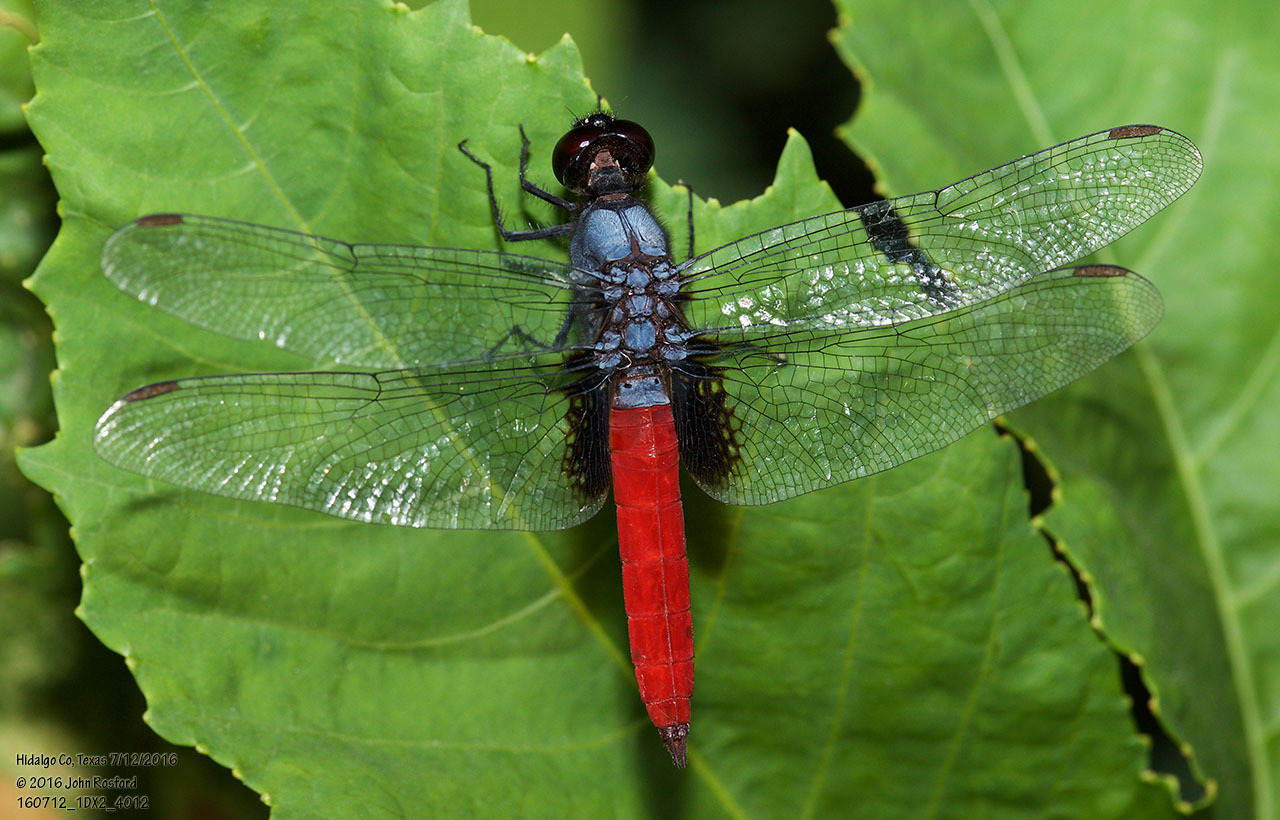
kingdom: Animalia
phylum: Arthropoda
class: Insecta
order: Odonata
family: Libellulidae
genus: Planiplax
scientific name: Planiplax sanguiniventris
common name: Mexican scarlet-tail
